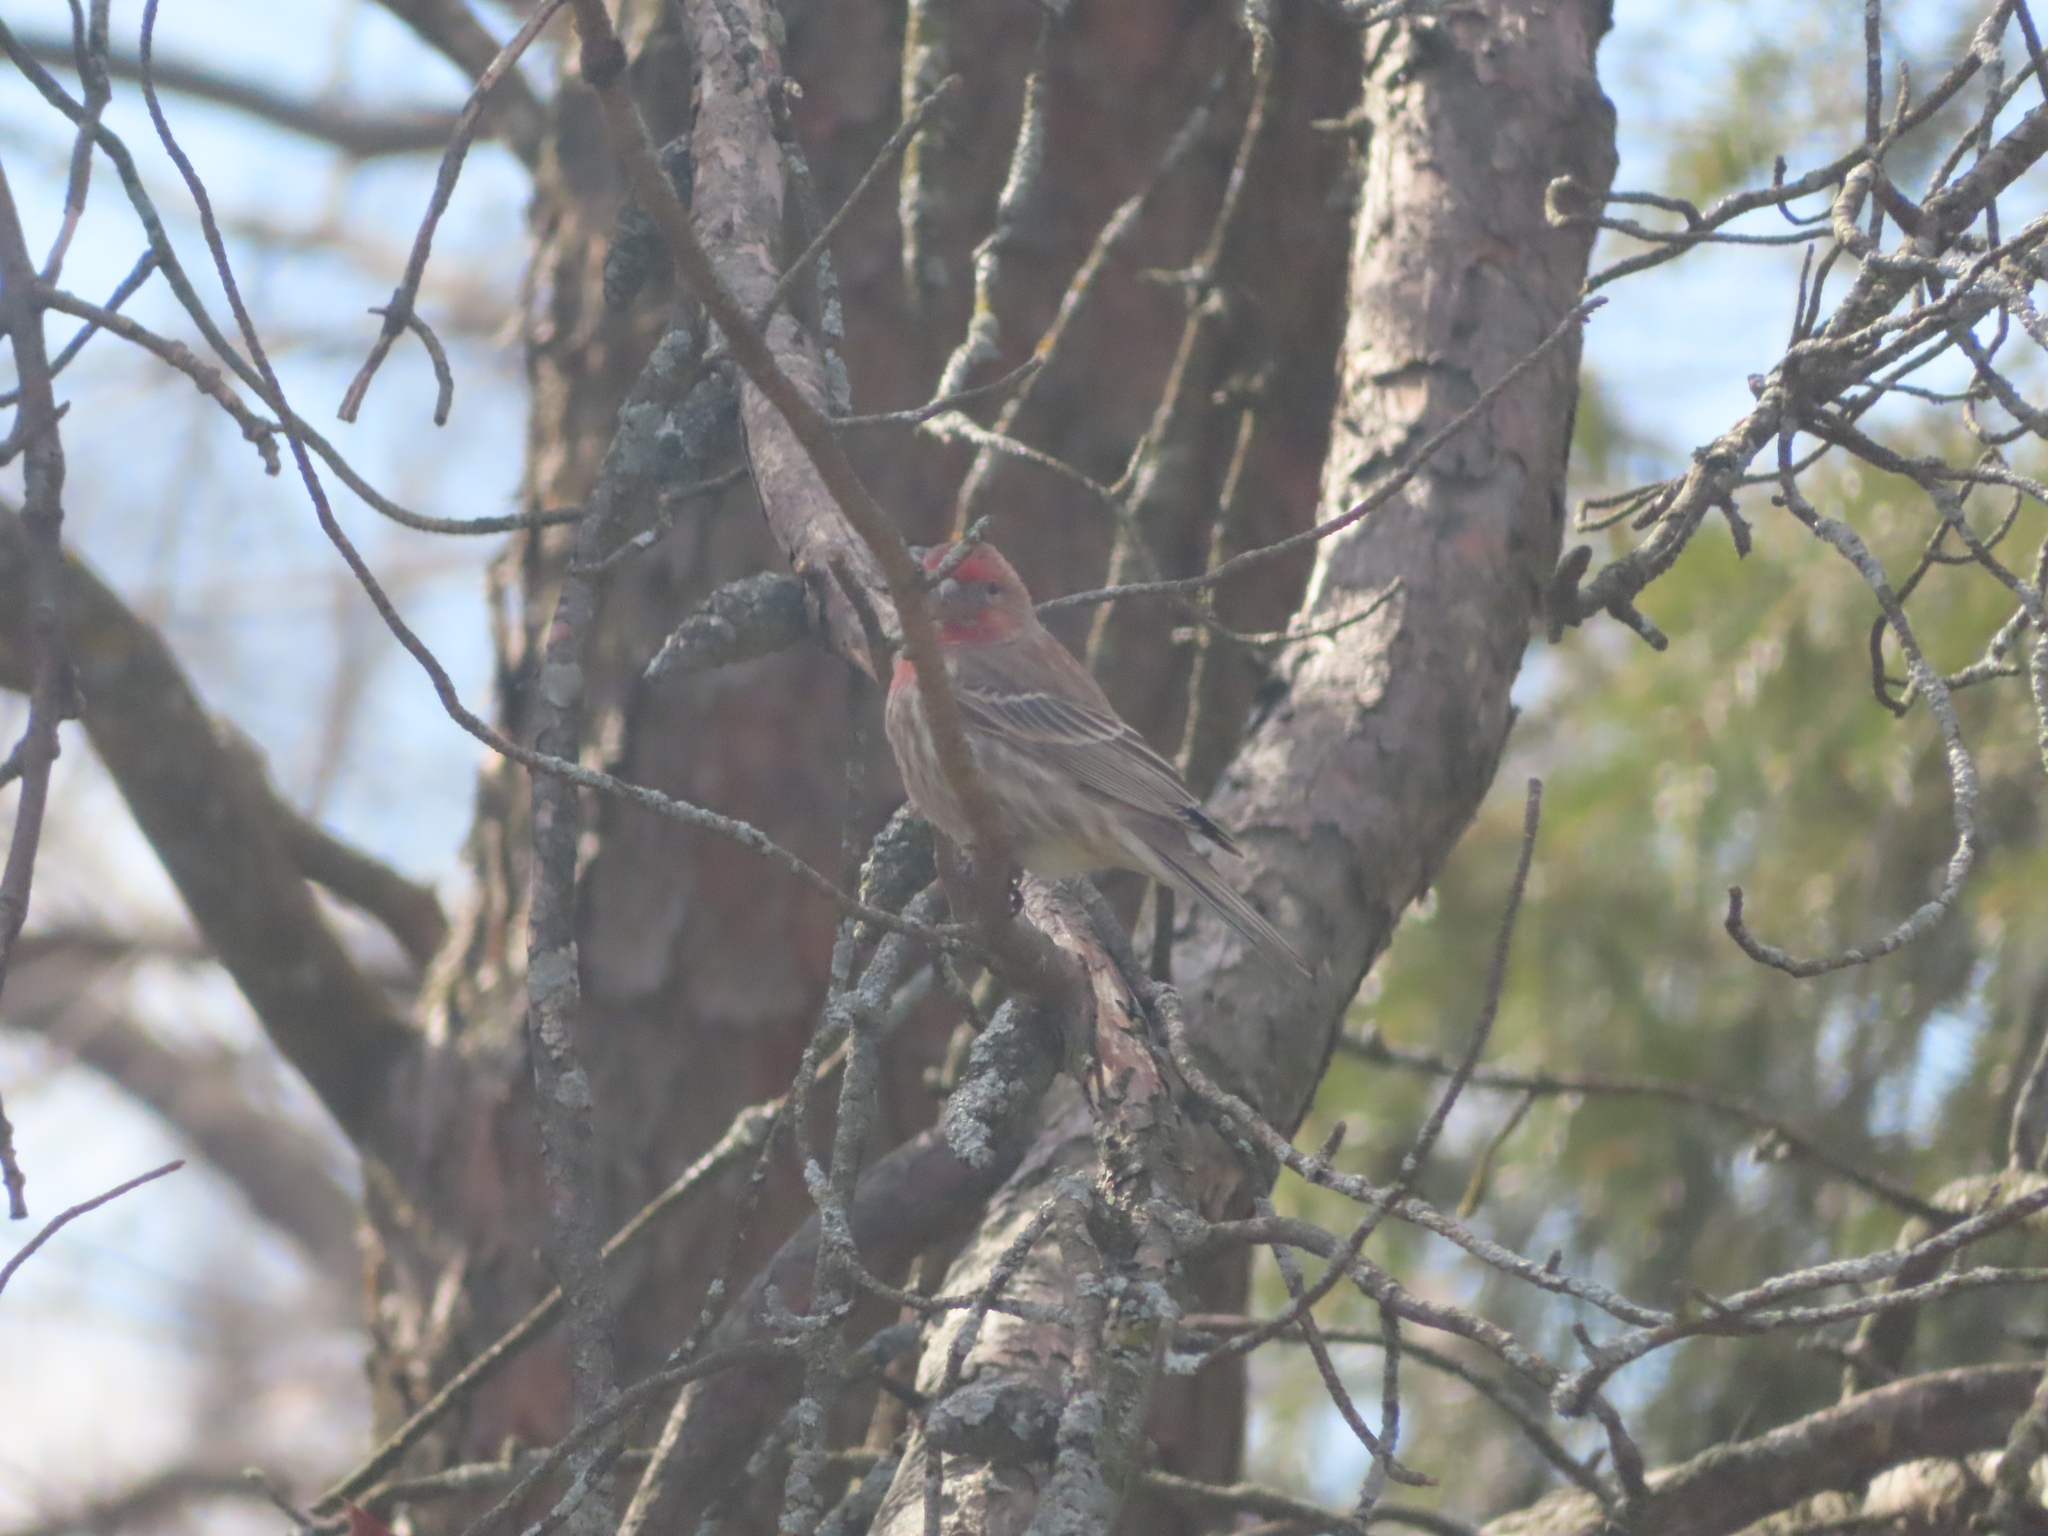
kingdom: Animalia
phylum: Chordata
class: Aves
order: Passeriformes
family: Fringillidae
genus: Haemorhous
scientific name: Haemorhous mexicanus
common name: House finch
